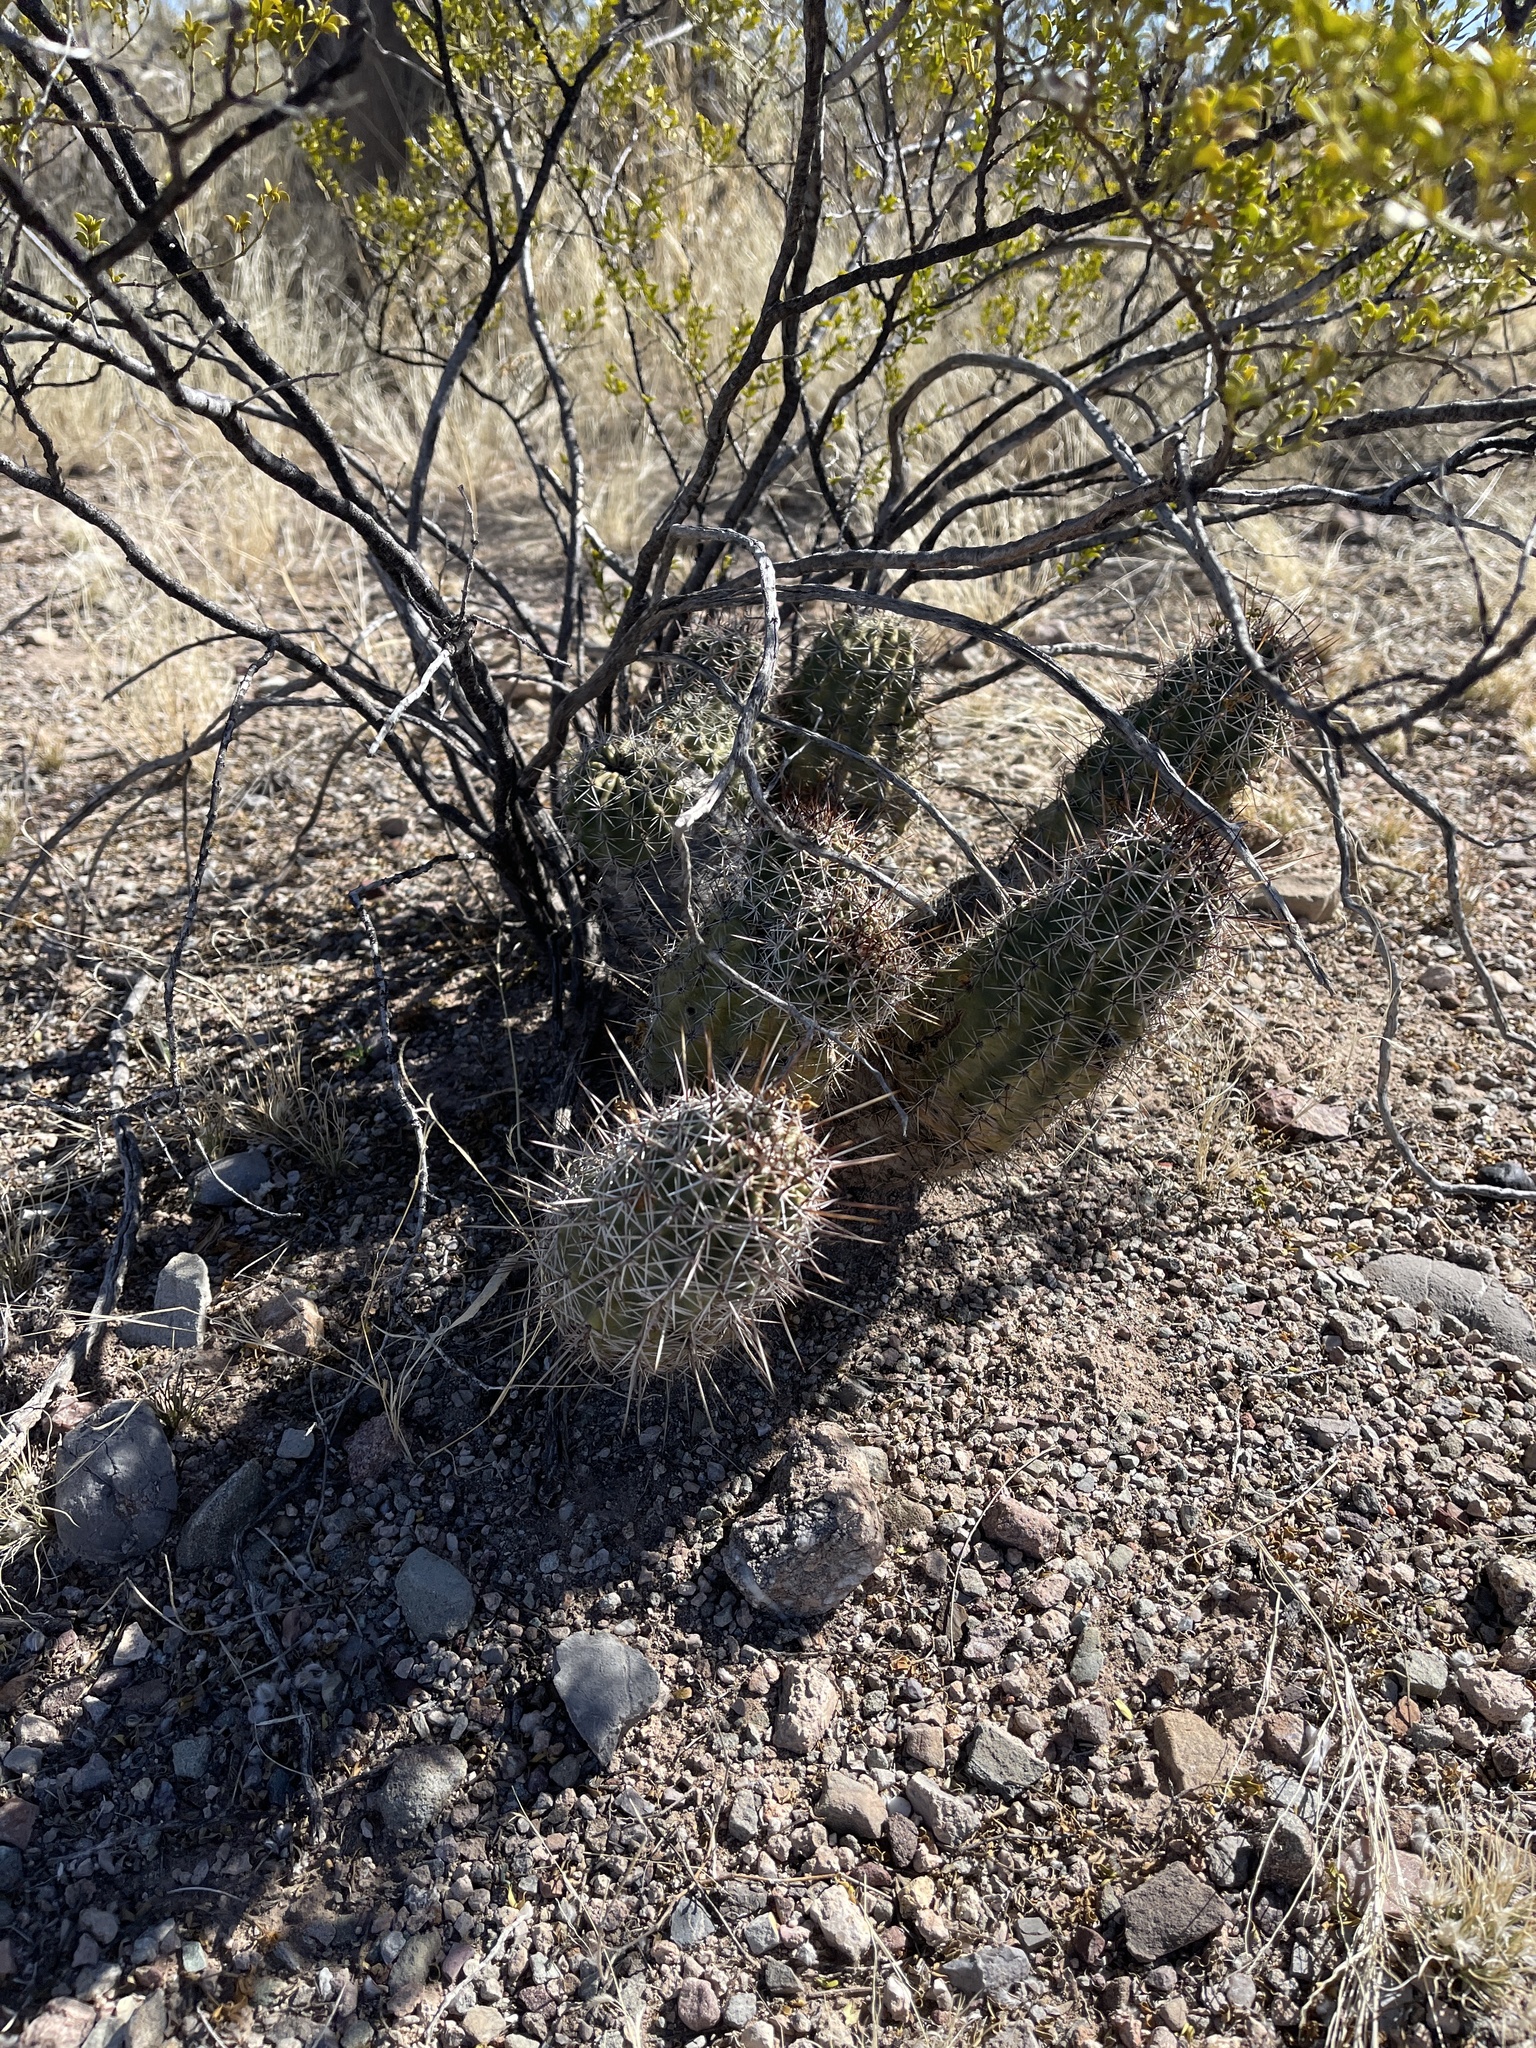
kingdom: Plantae
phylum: Tracheophyta
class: Magnoliopsida
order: Caryophyllales
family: Cactaceae
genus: Echinocereus
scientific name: Echinocereus fasciculatus
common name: Bundle hedgehog
